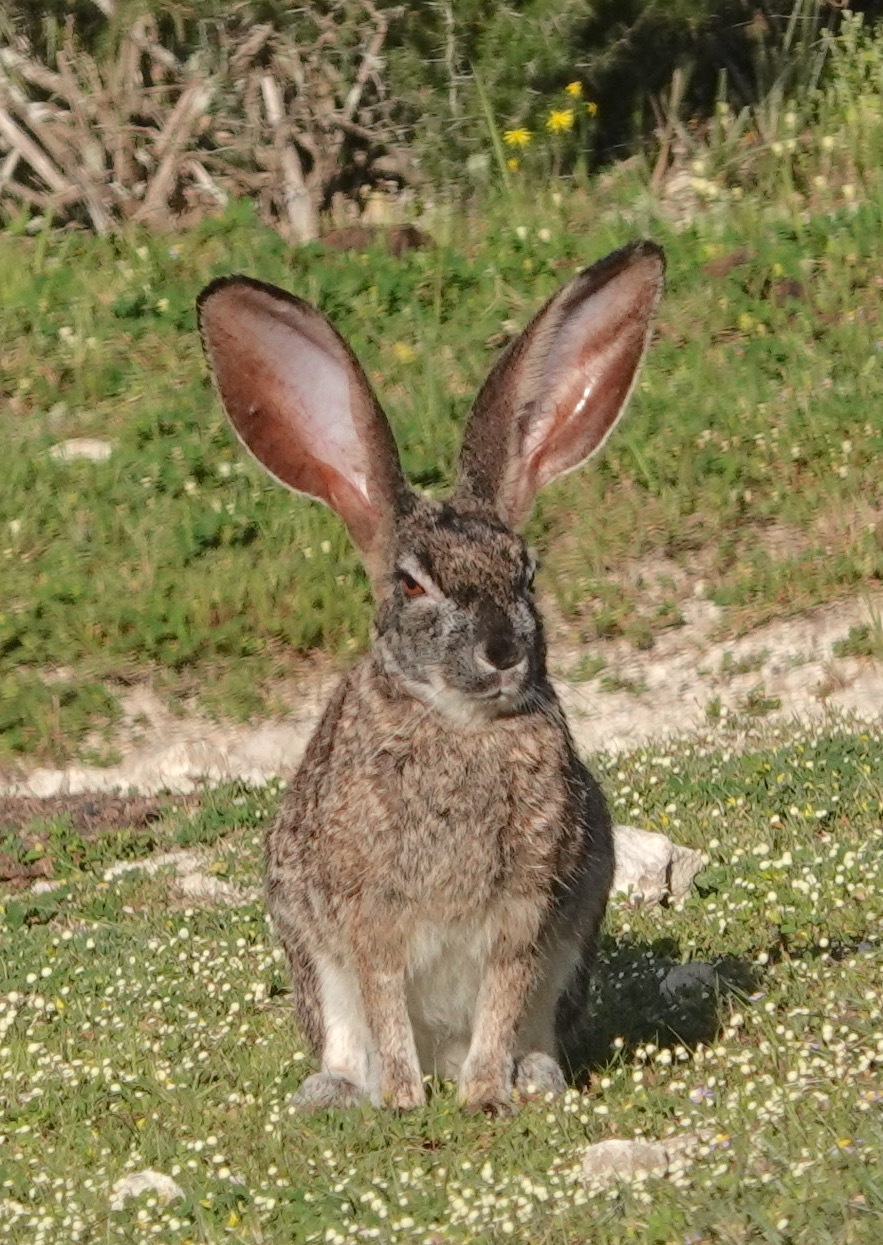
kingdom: Animalia
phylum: Chordata
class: Mammalia
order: Lagomorpha
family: Leporidae
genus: Lepus
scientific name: Lepus saxatilis
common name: Scrub hare
